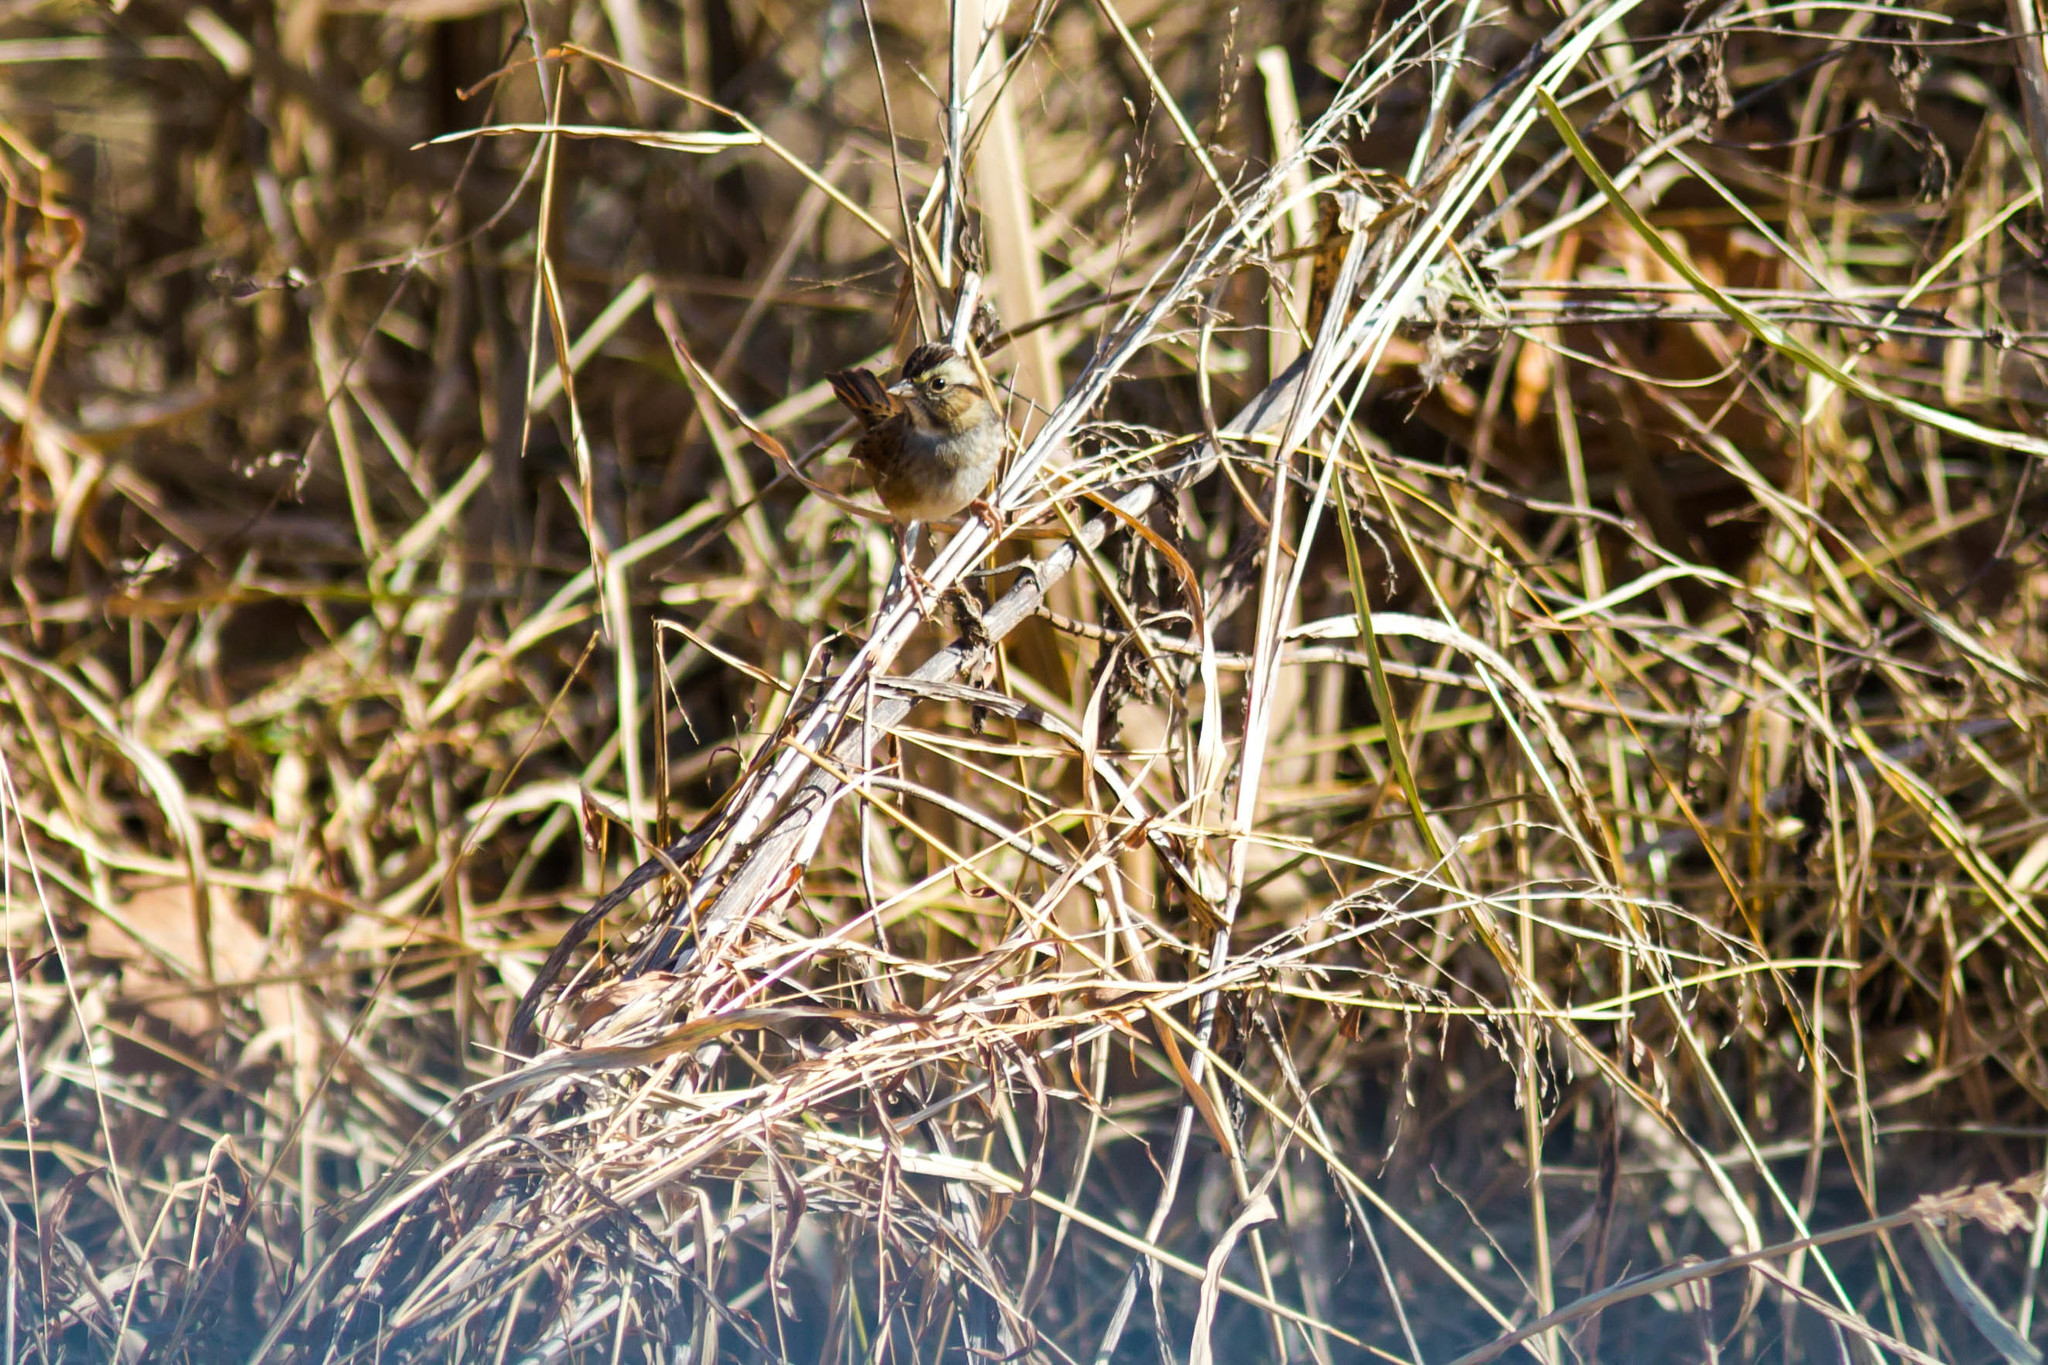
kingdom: Animalia
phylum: Chordata
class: Aves
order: Passeriformes
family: Passerellidae
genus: Melospiza
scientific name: Melospiza georgiana
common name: Swamp sparrow
